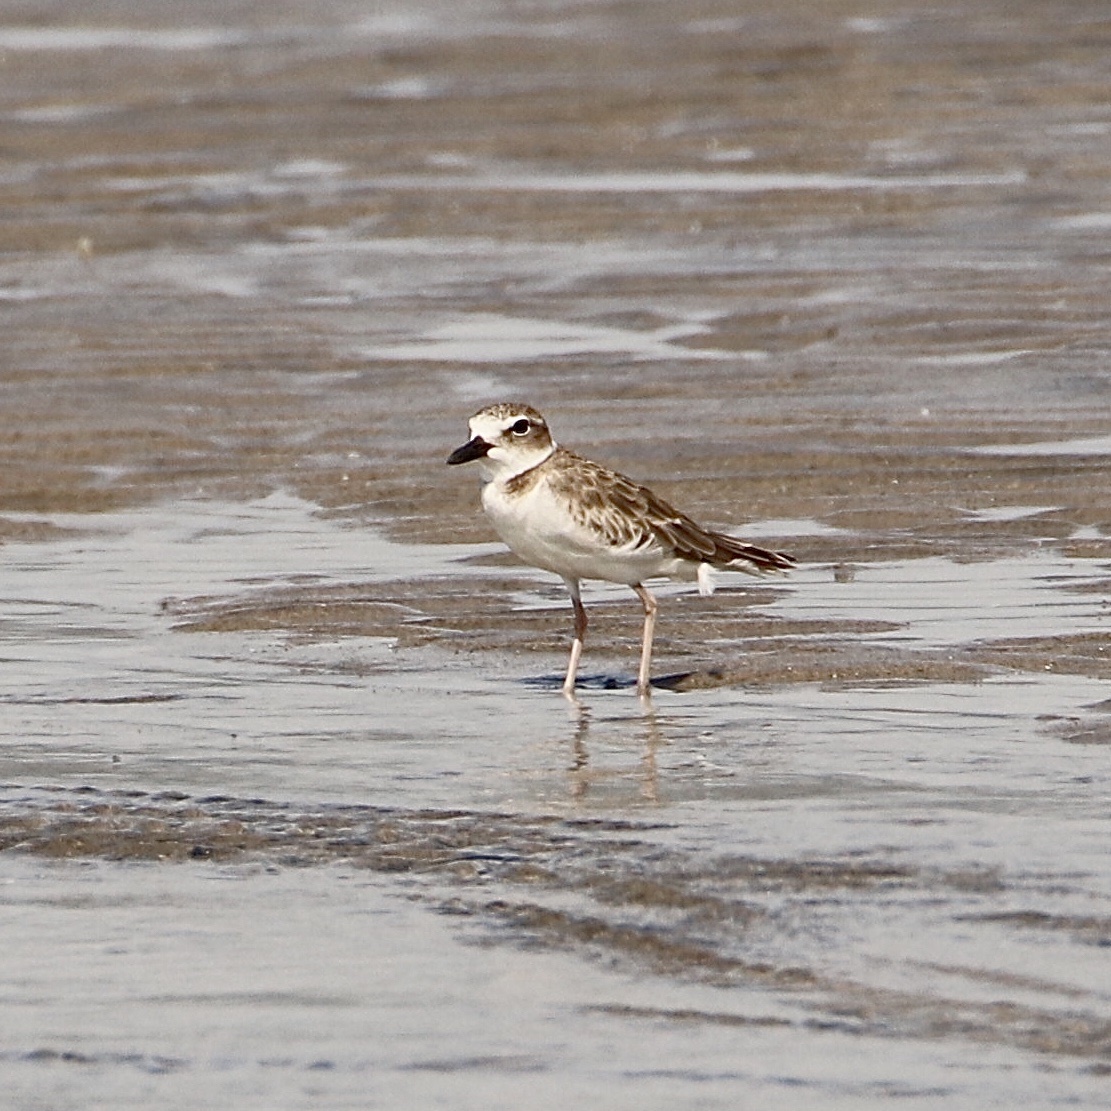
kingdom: Animalia
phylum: Chordata
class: Aves
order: Charadriiformes
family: Charadriidae
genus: Anarhynchus
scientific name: Anarhynchus
